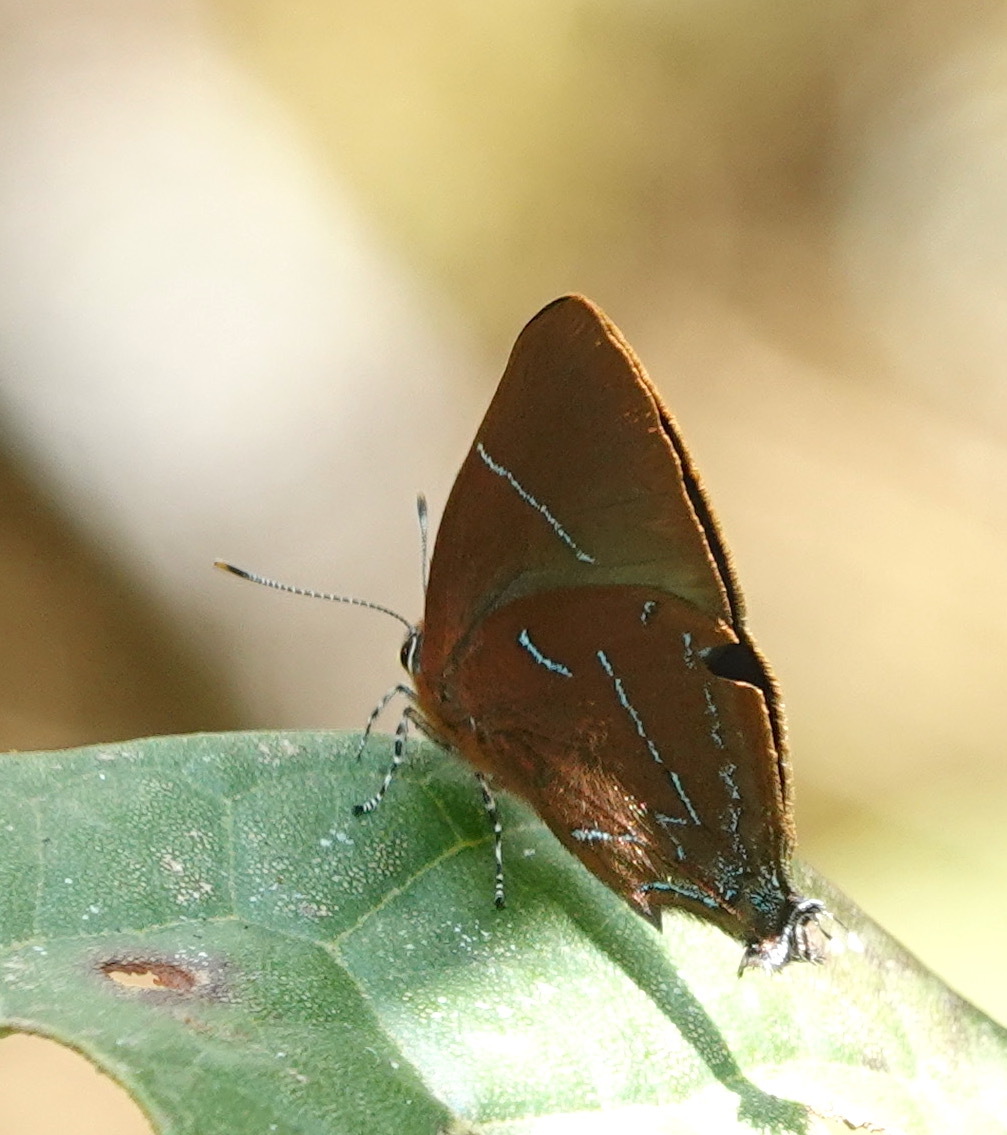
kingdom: Animalia
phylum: Arthropoda
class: Insecta
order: Lepidoptera
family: Lycaenidae
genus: Oenomaus
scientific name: Oenomaus
